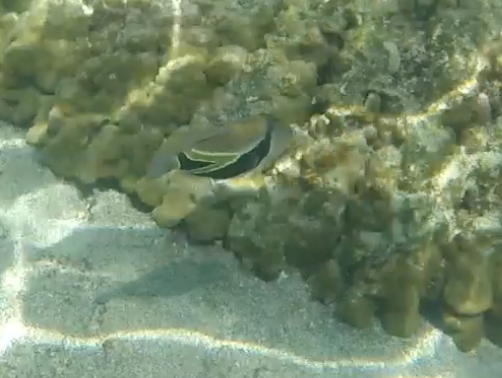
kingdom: Animalia
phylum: Chordata
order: Tetraodontiformes
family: Balistidae
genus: Rhinecanthus
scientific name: Rhinecanthus rectangulus
